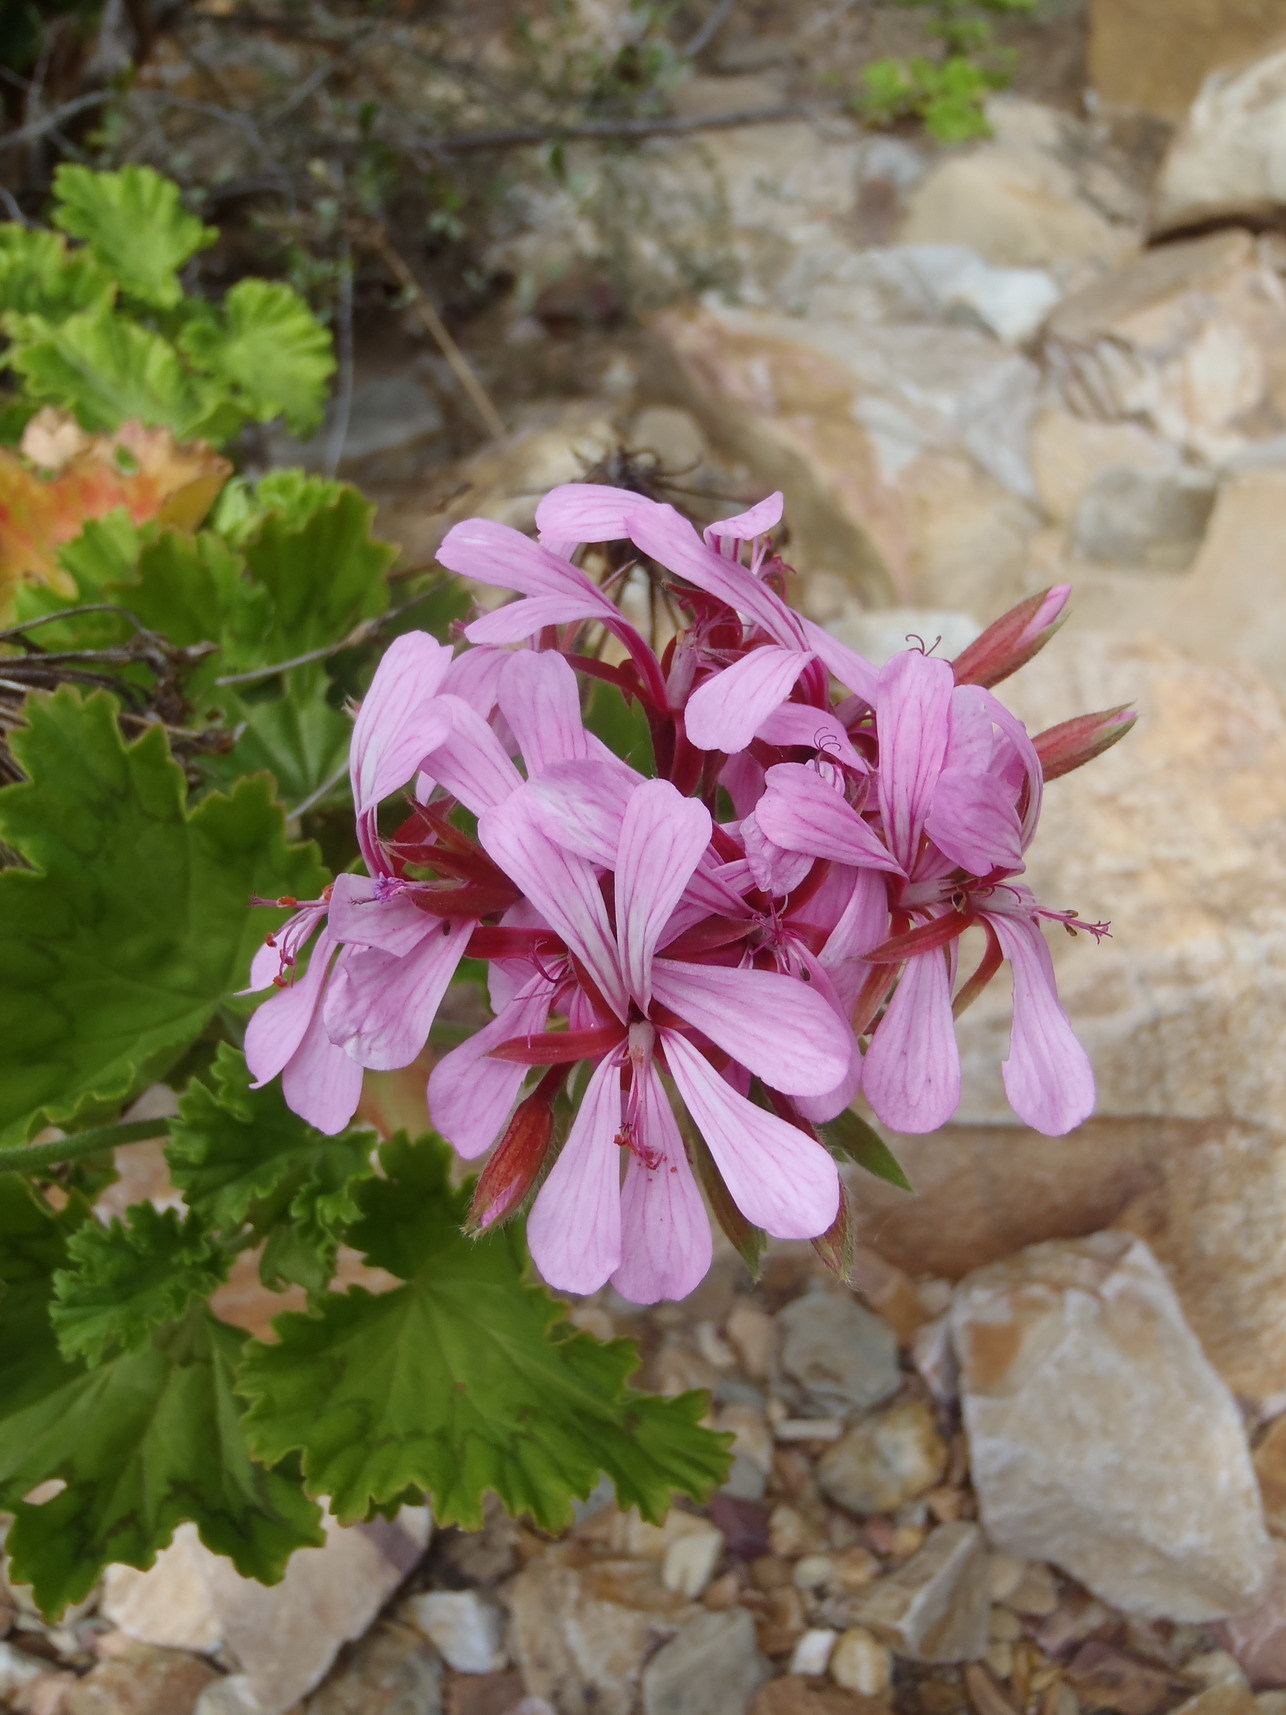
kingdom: Plantae
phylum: Tracheophyta
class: Magnoliopsida
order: Geraniales
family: Geraniaceae
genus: Pelargonium
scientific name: Pelargonium zonale
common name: Horseshoe geranium
